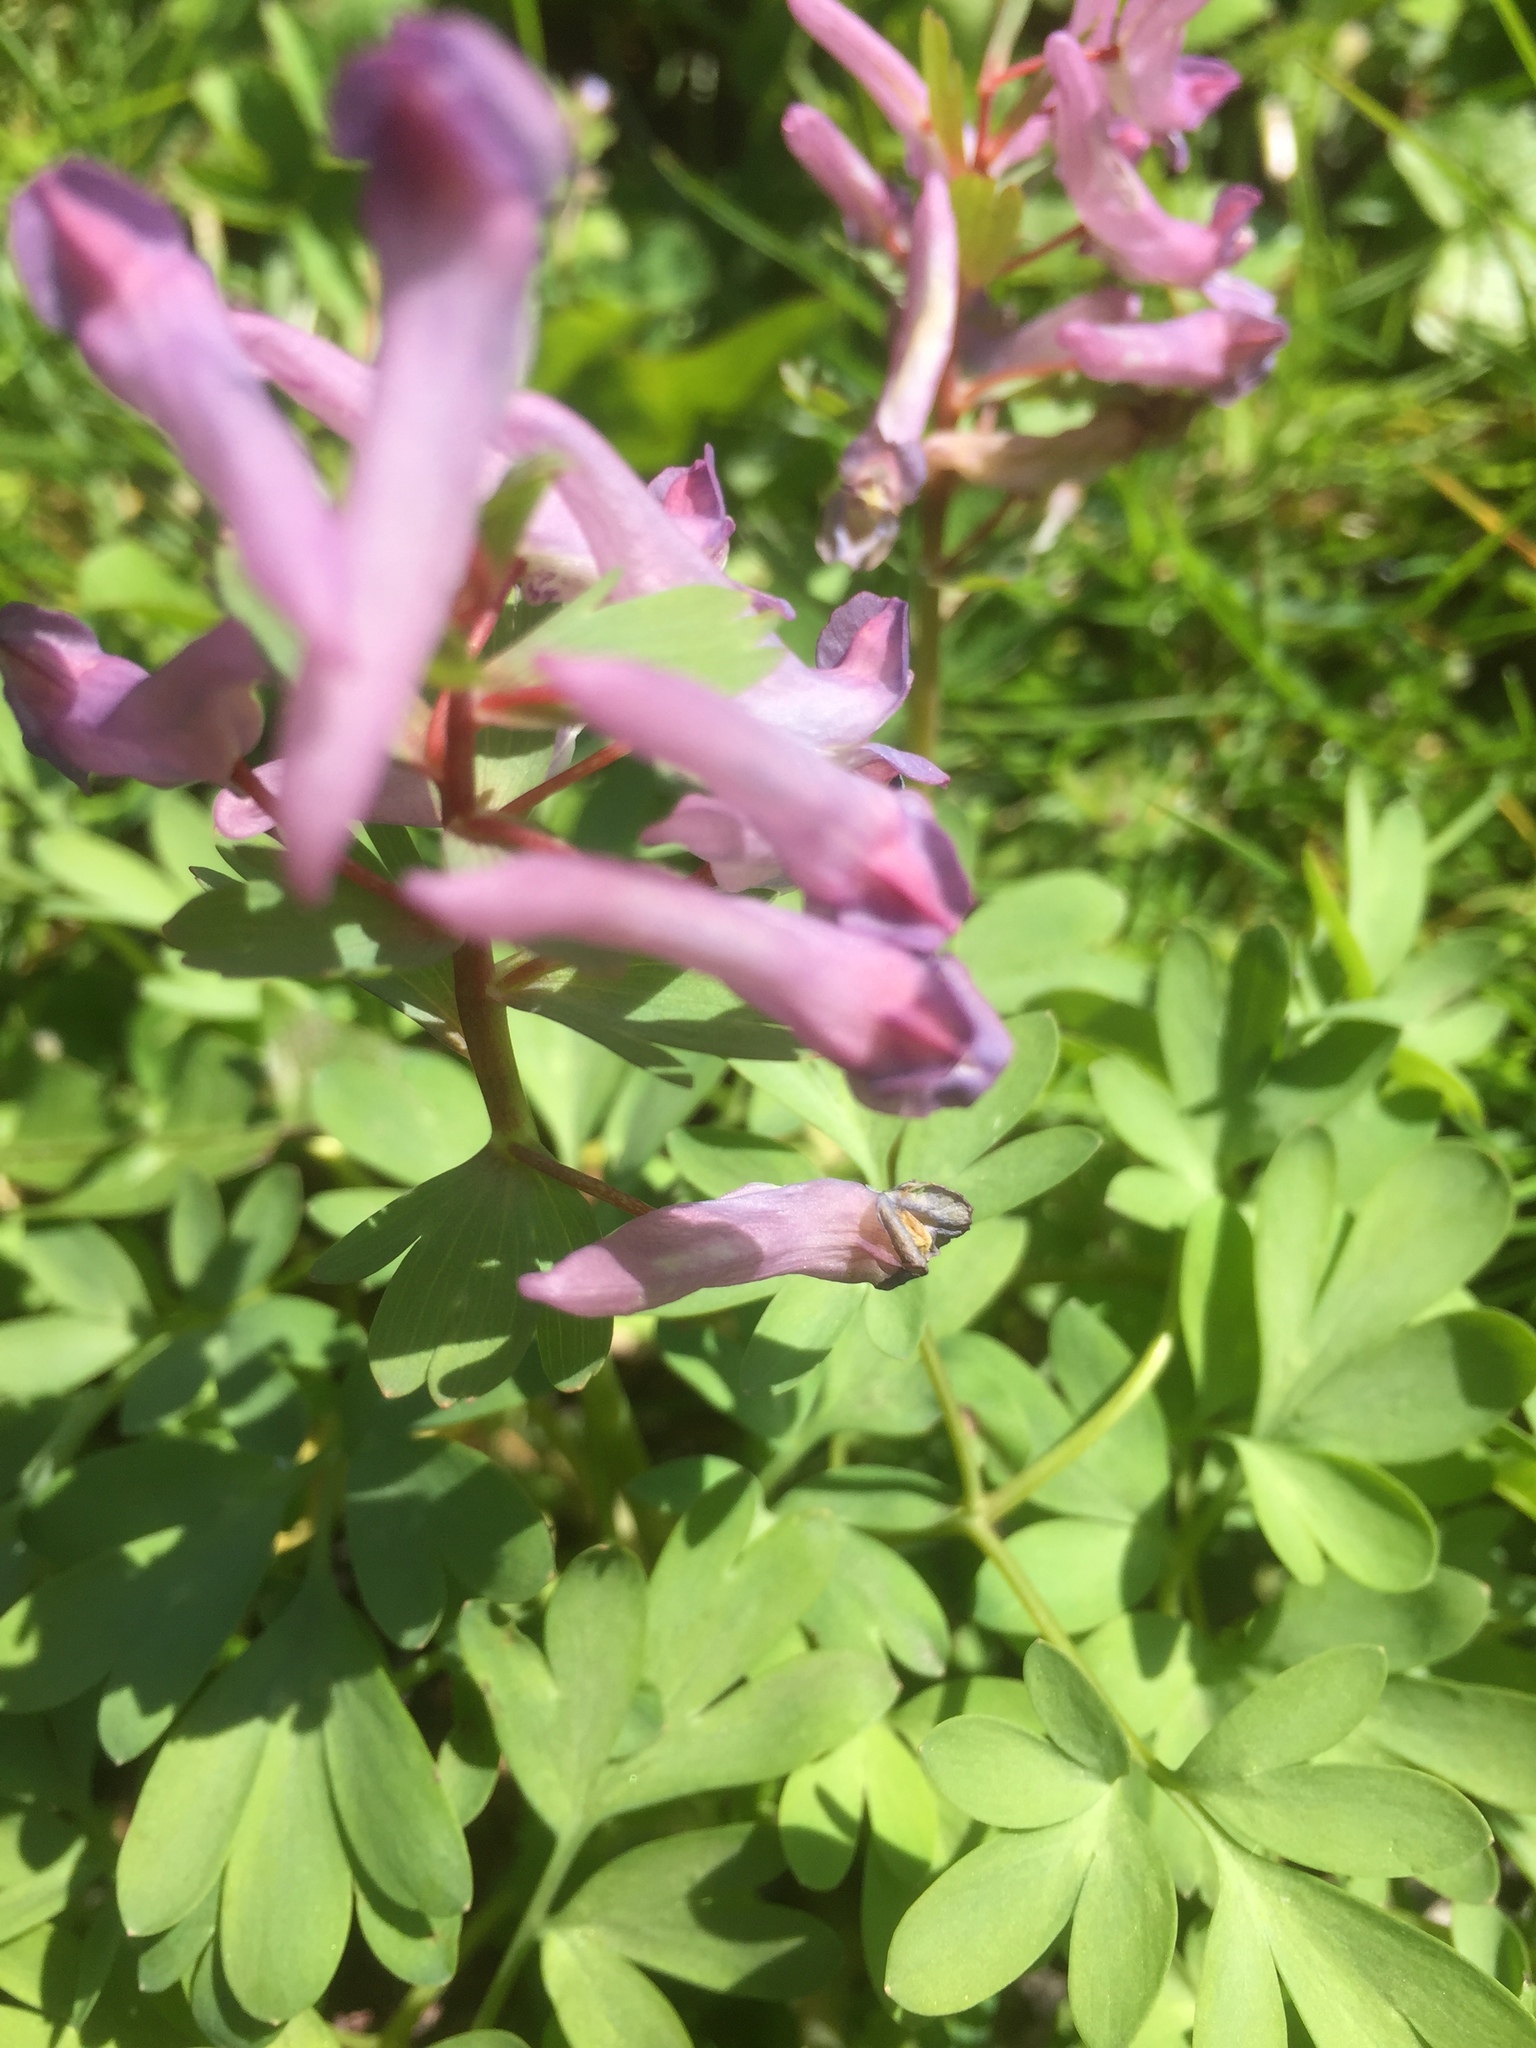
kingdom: Plantae
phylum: Tracheophyta
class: Magnoliopsida
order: Ranunculales
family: Papaveraceae
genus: Corydalis
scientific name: Corydalis solida
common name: Bird-in-a-bush
